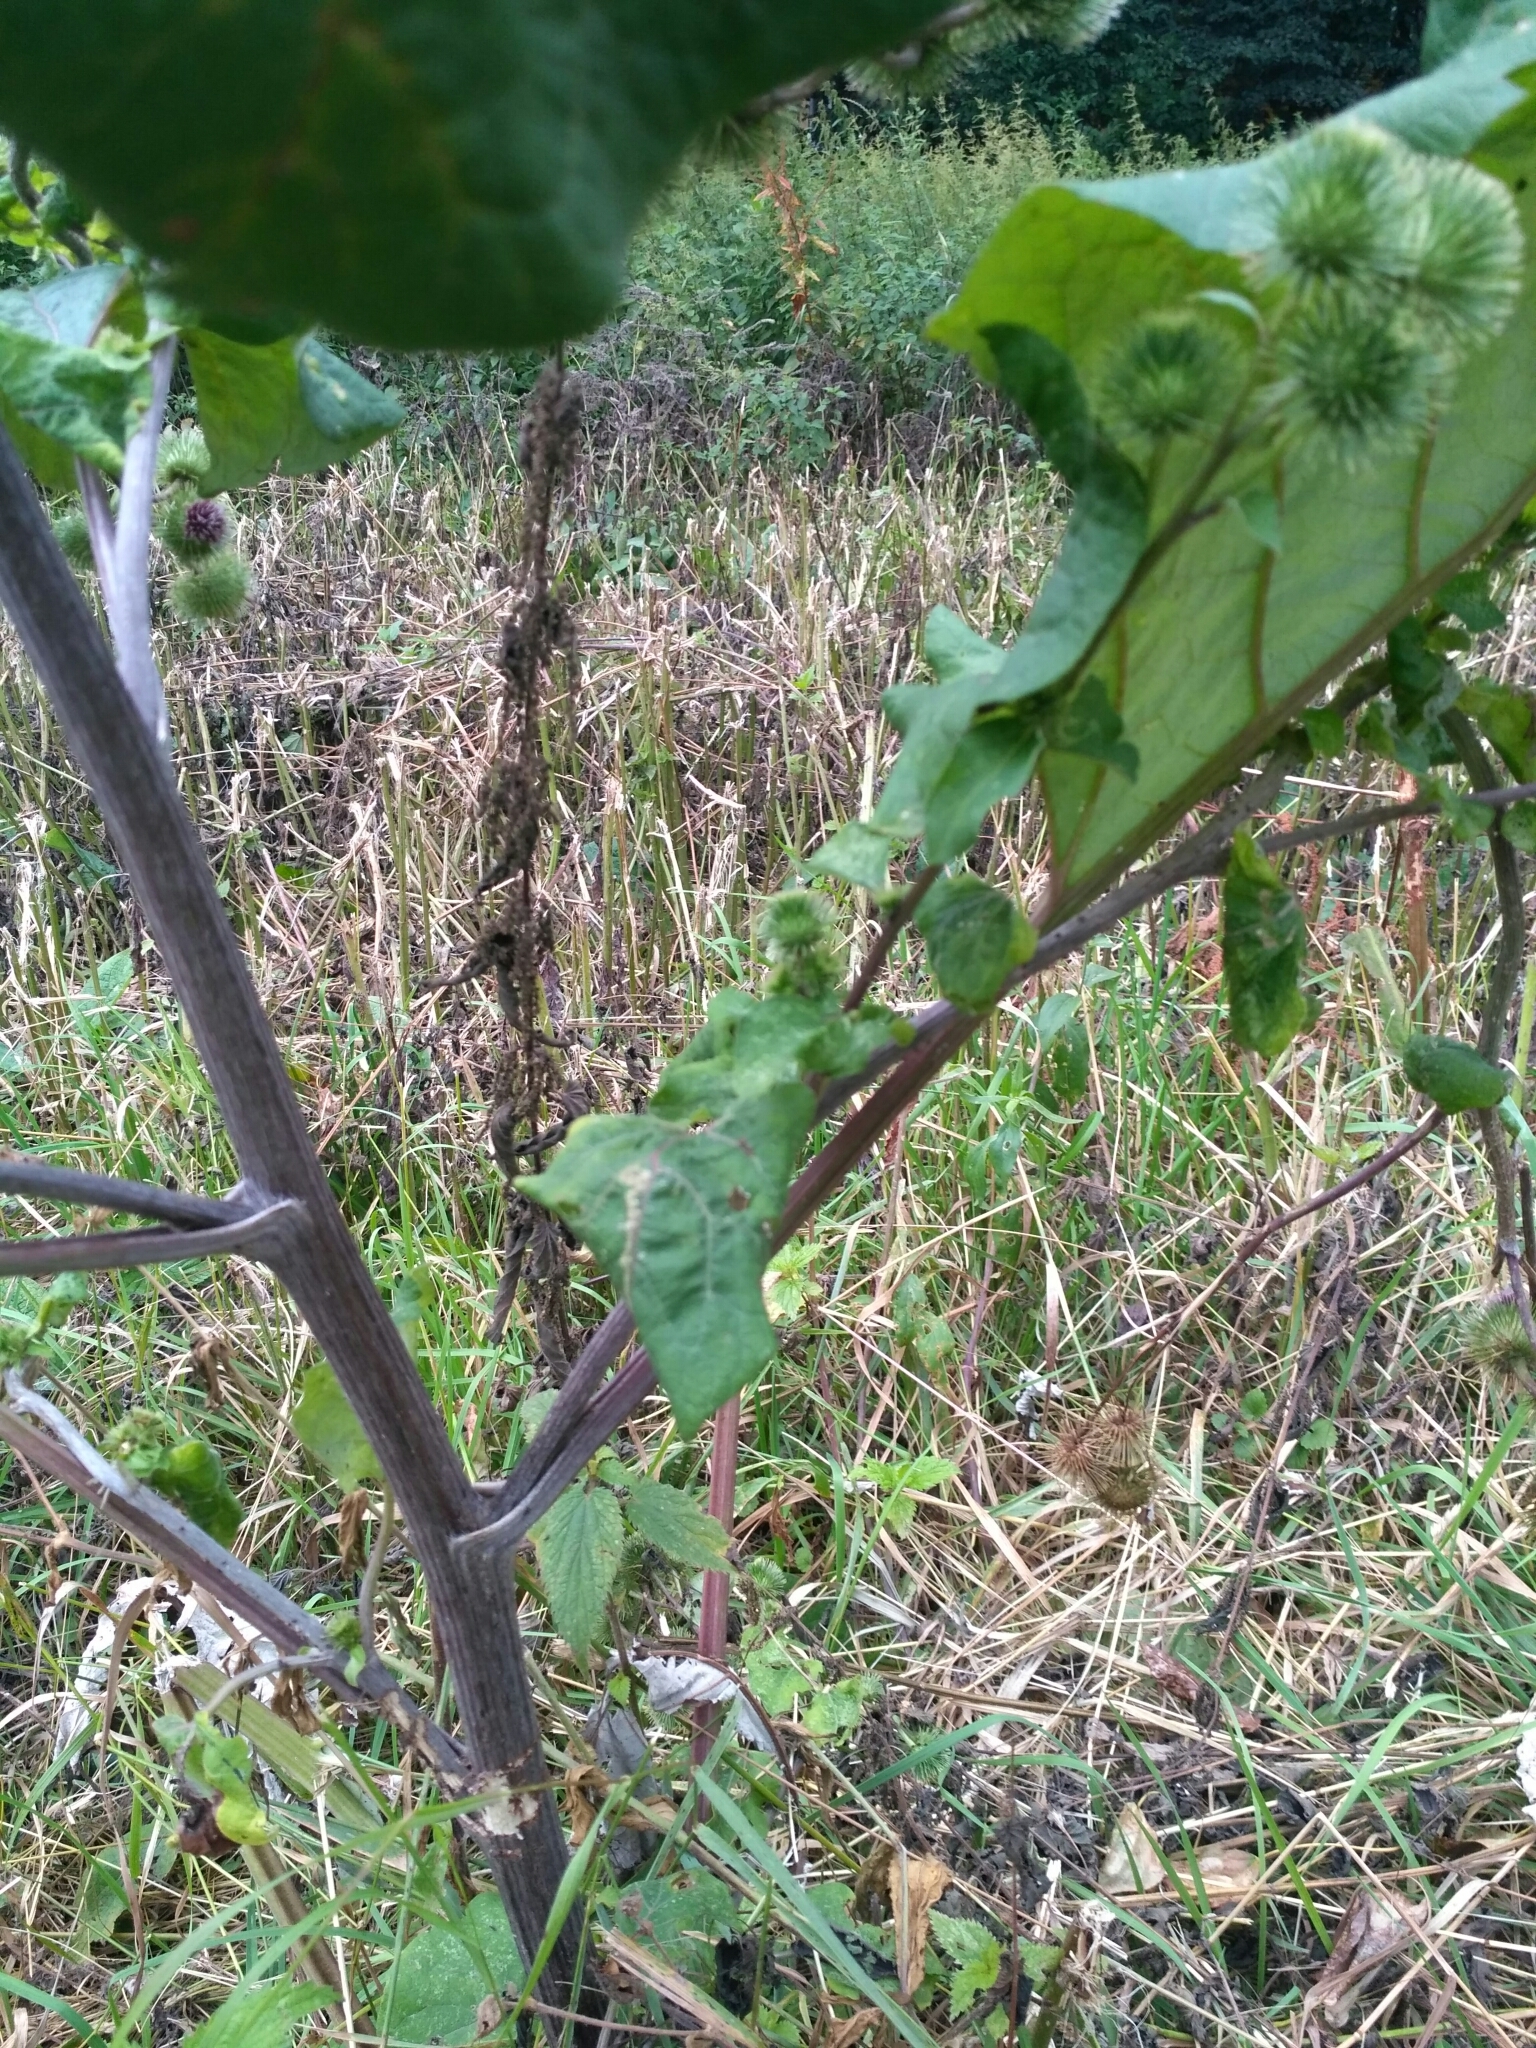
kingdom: Plantae
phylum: Tracheophyta
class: Magnoliopsida
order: Asterales
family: Asteraceae
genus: Arctium
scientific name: Arctium lappa
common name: Greater burdock
